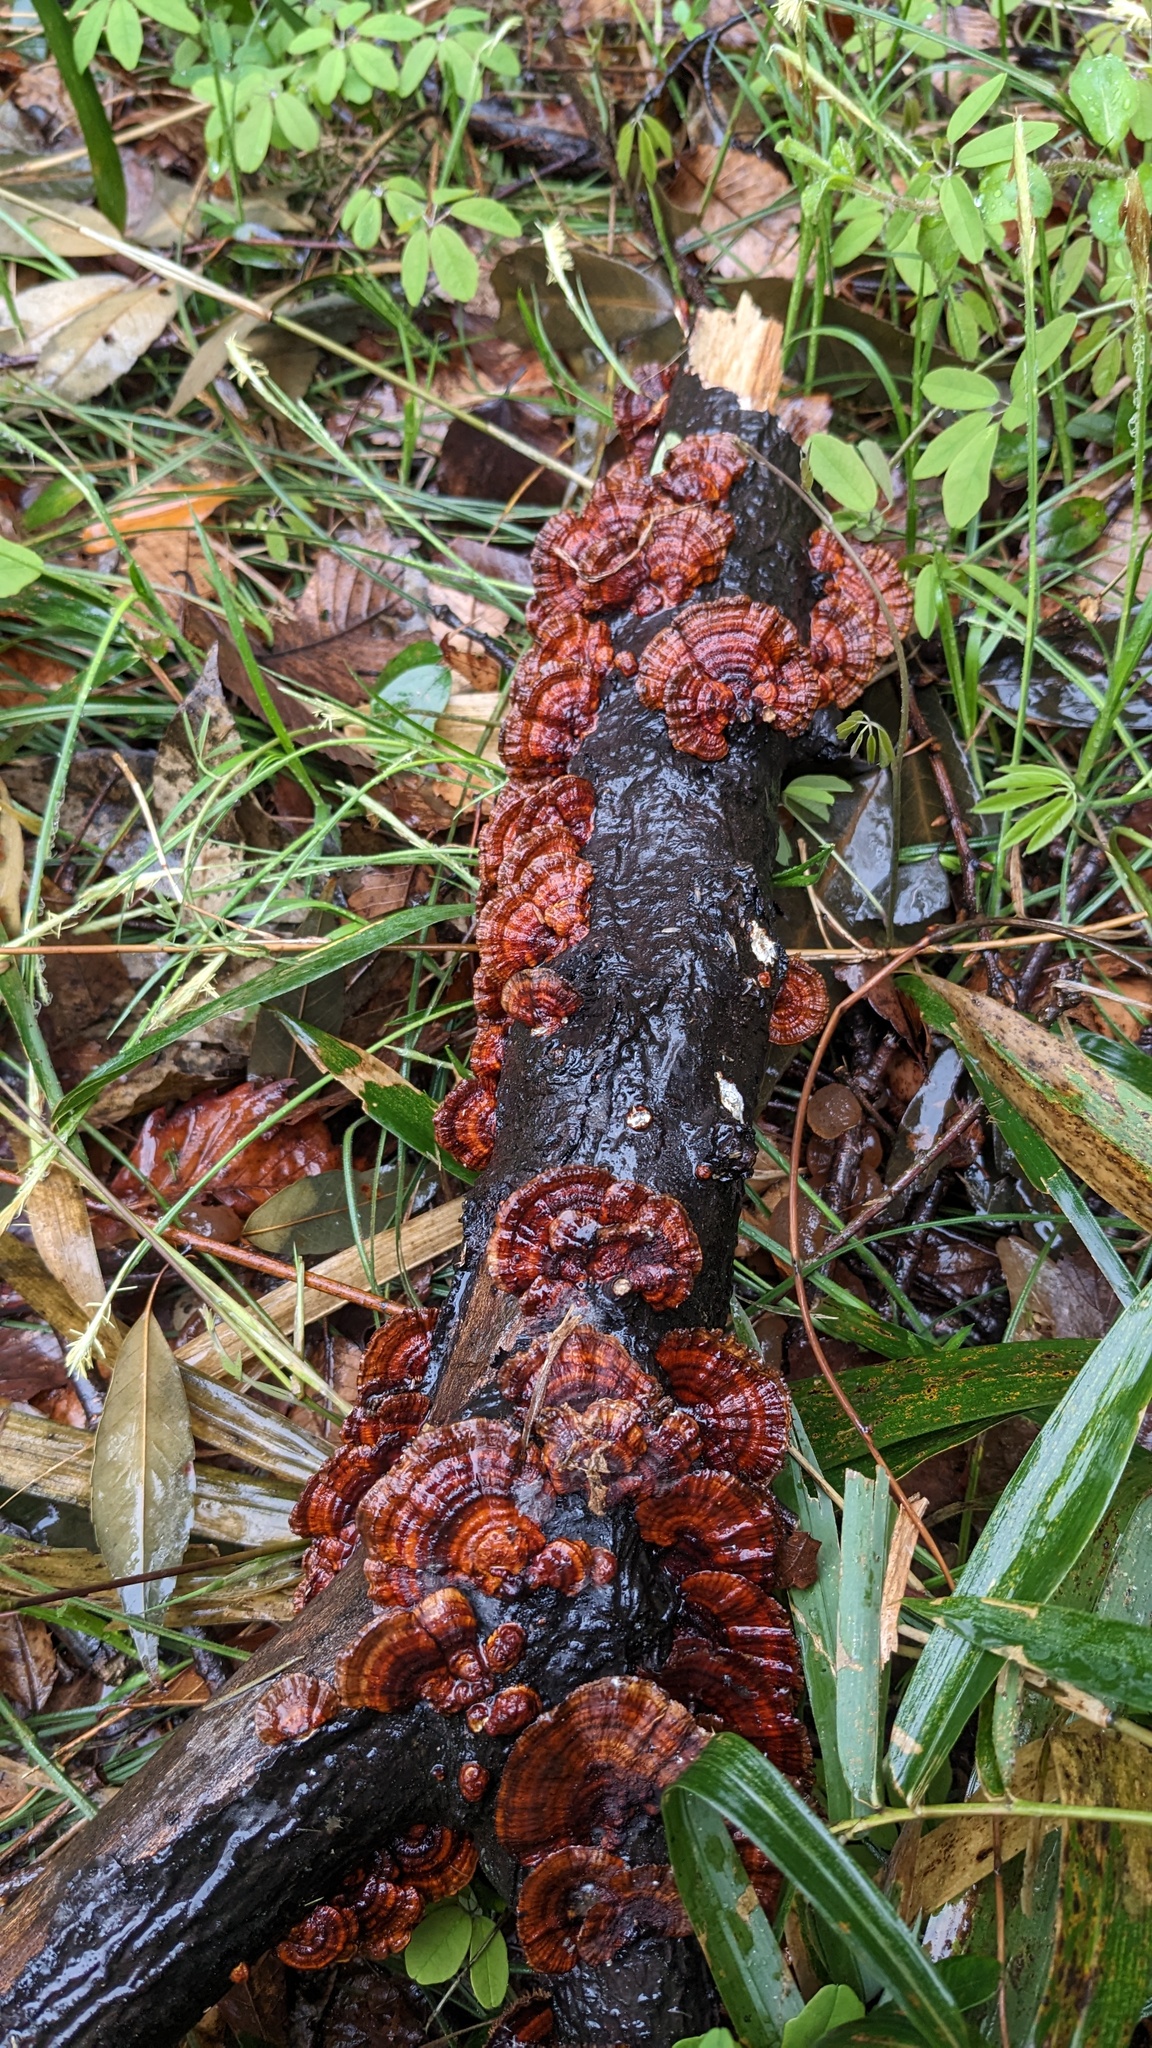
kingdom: Fungi
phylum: Basidiomycota
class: Agaricomycetes
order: Polyporales
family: Polyporaceae
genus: Daedaleopsis
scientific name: Daedaleopsis tricolor
